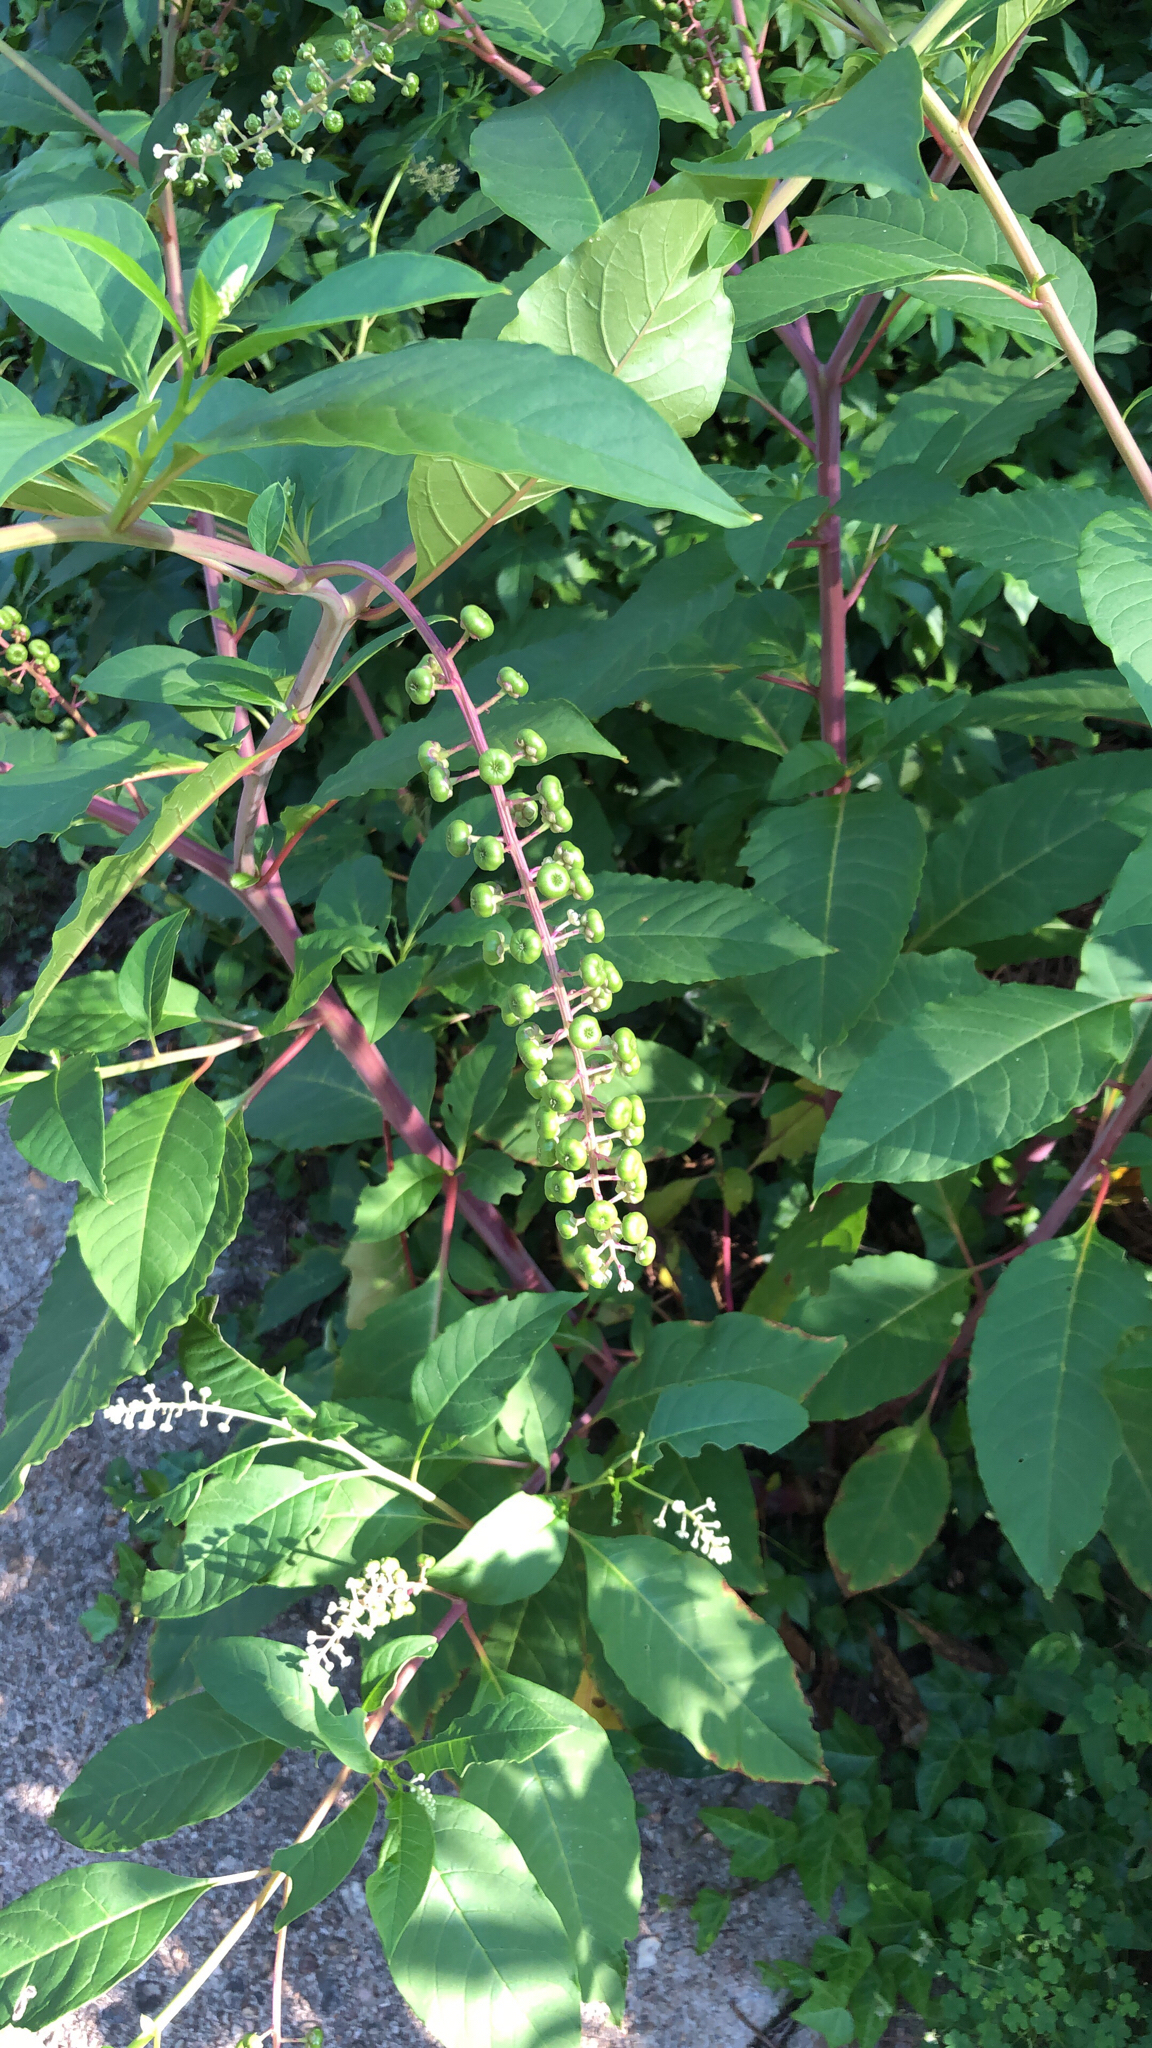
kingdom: Plantae
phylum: Tracheophyta
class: Magnoliopsida
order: Caryophyllales
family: Phytolaccaceae
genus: Phytolacca
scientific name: Phytolacca americana
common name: American pokeweed
